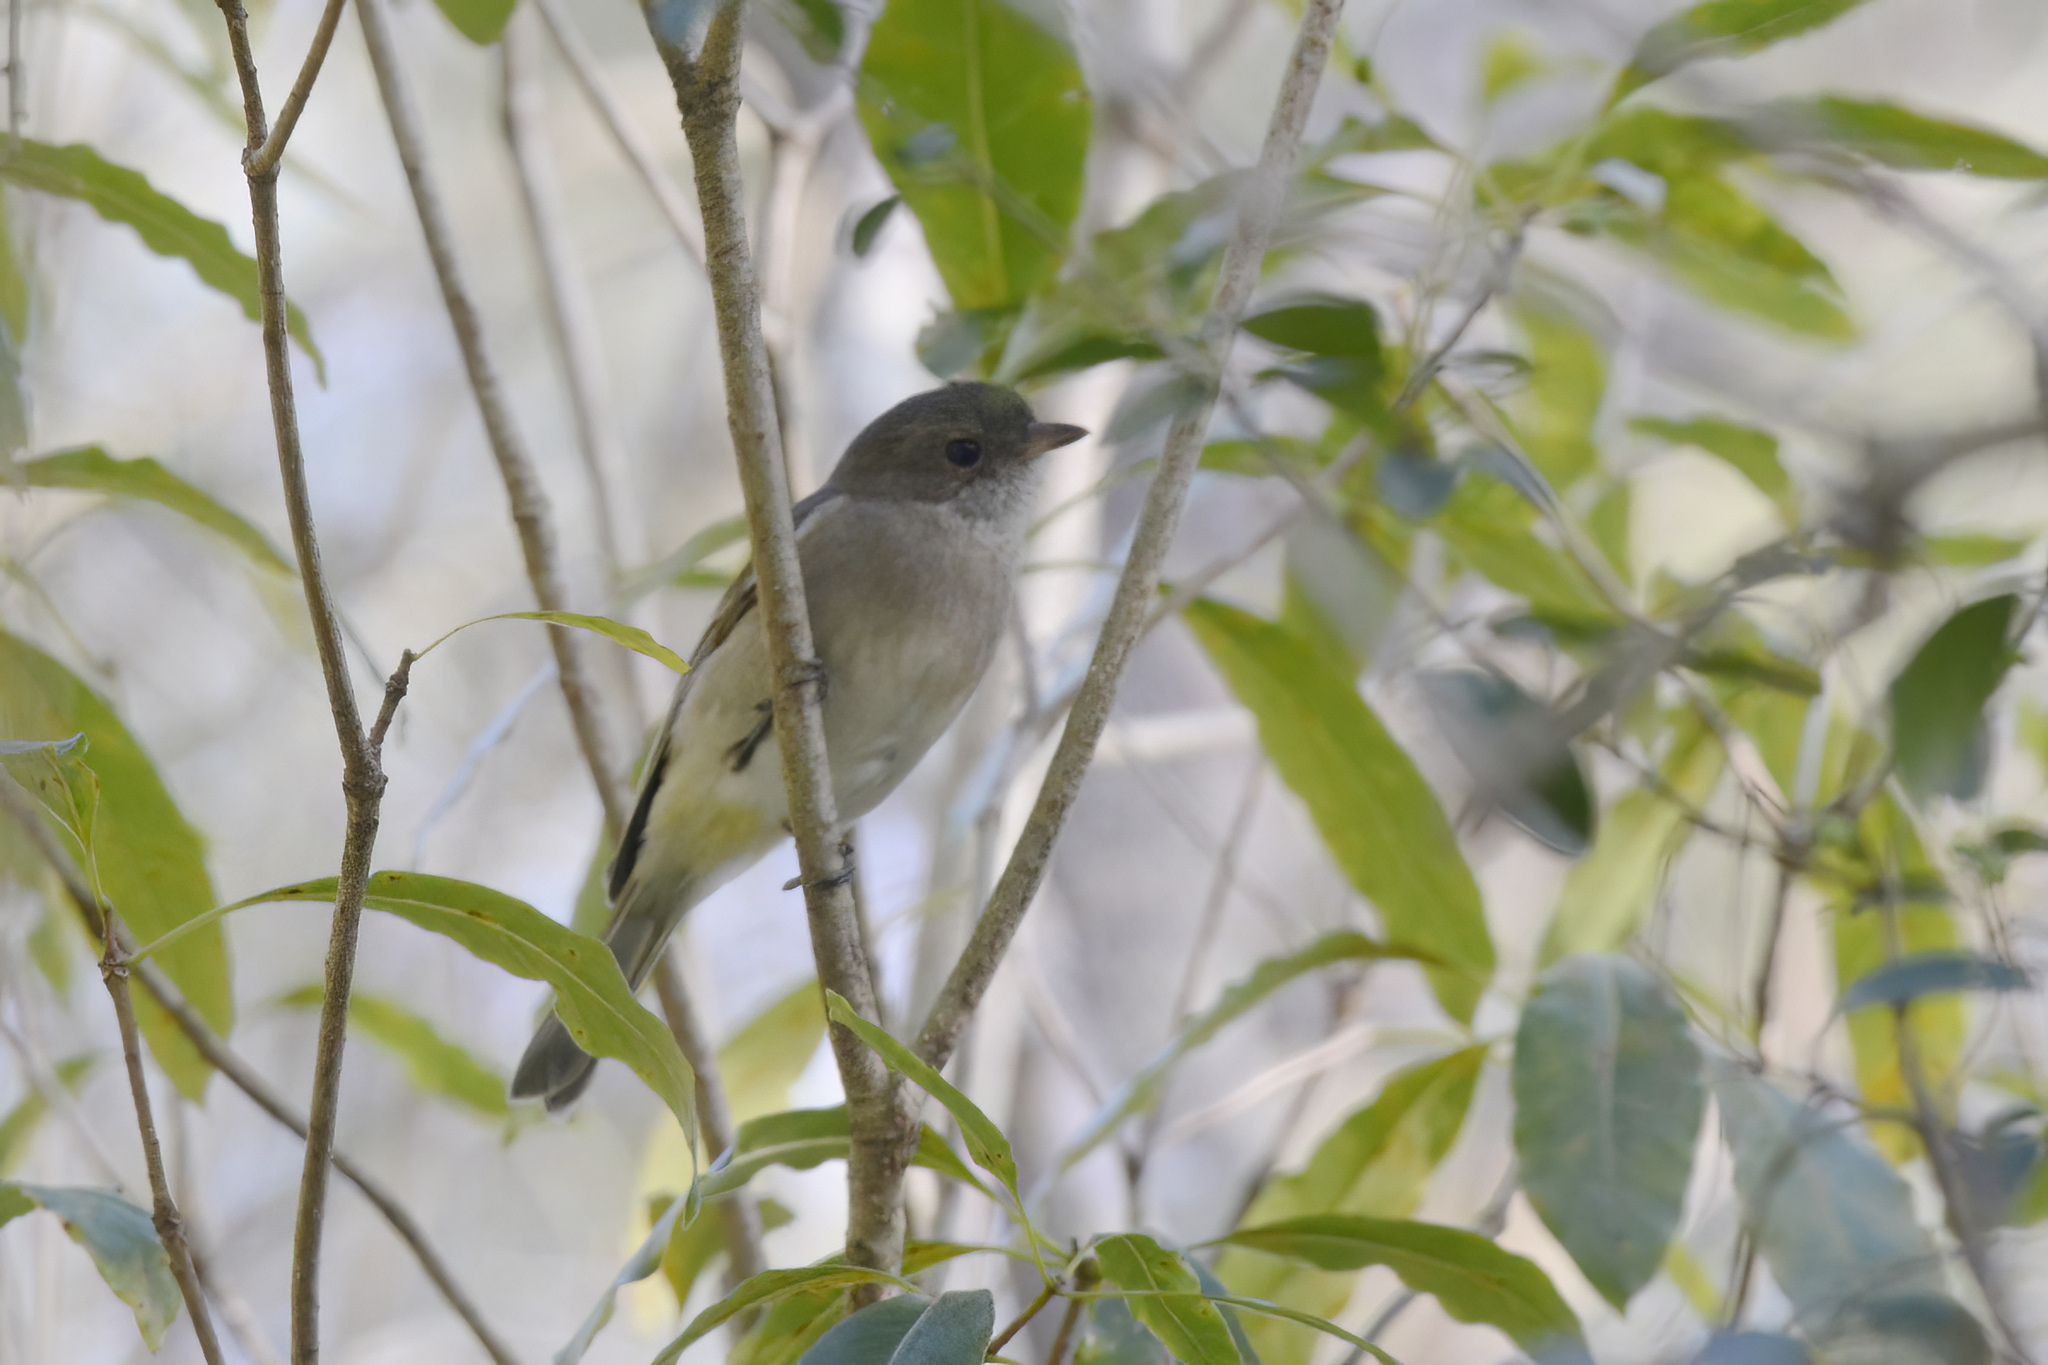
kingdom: Animalia
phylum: Chordata
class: Aves
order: Passeriformes
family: Pachycephalidae
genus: Pachycephala
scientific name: Pachycephala pectoralis
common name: Australian golden whistler
